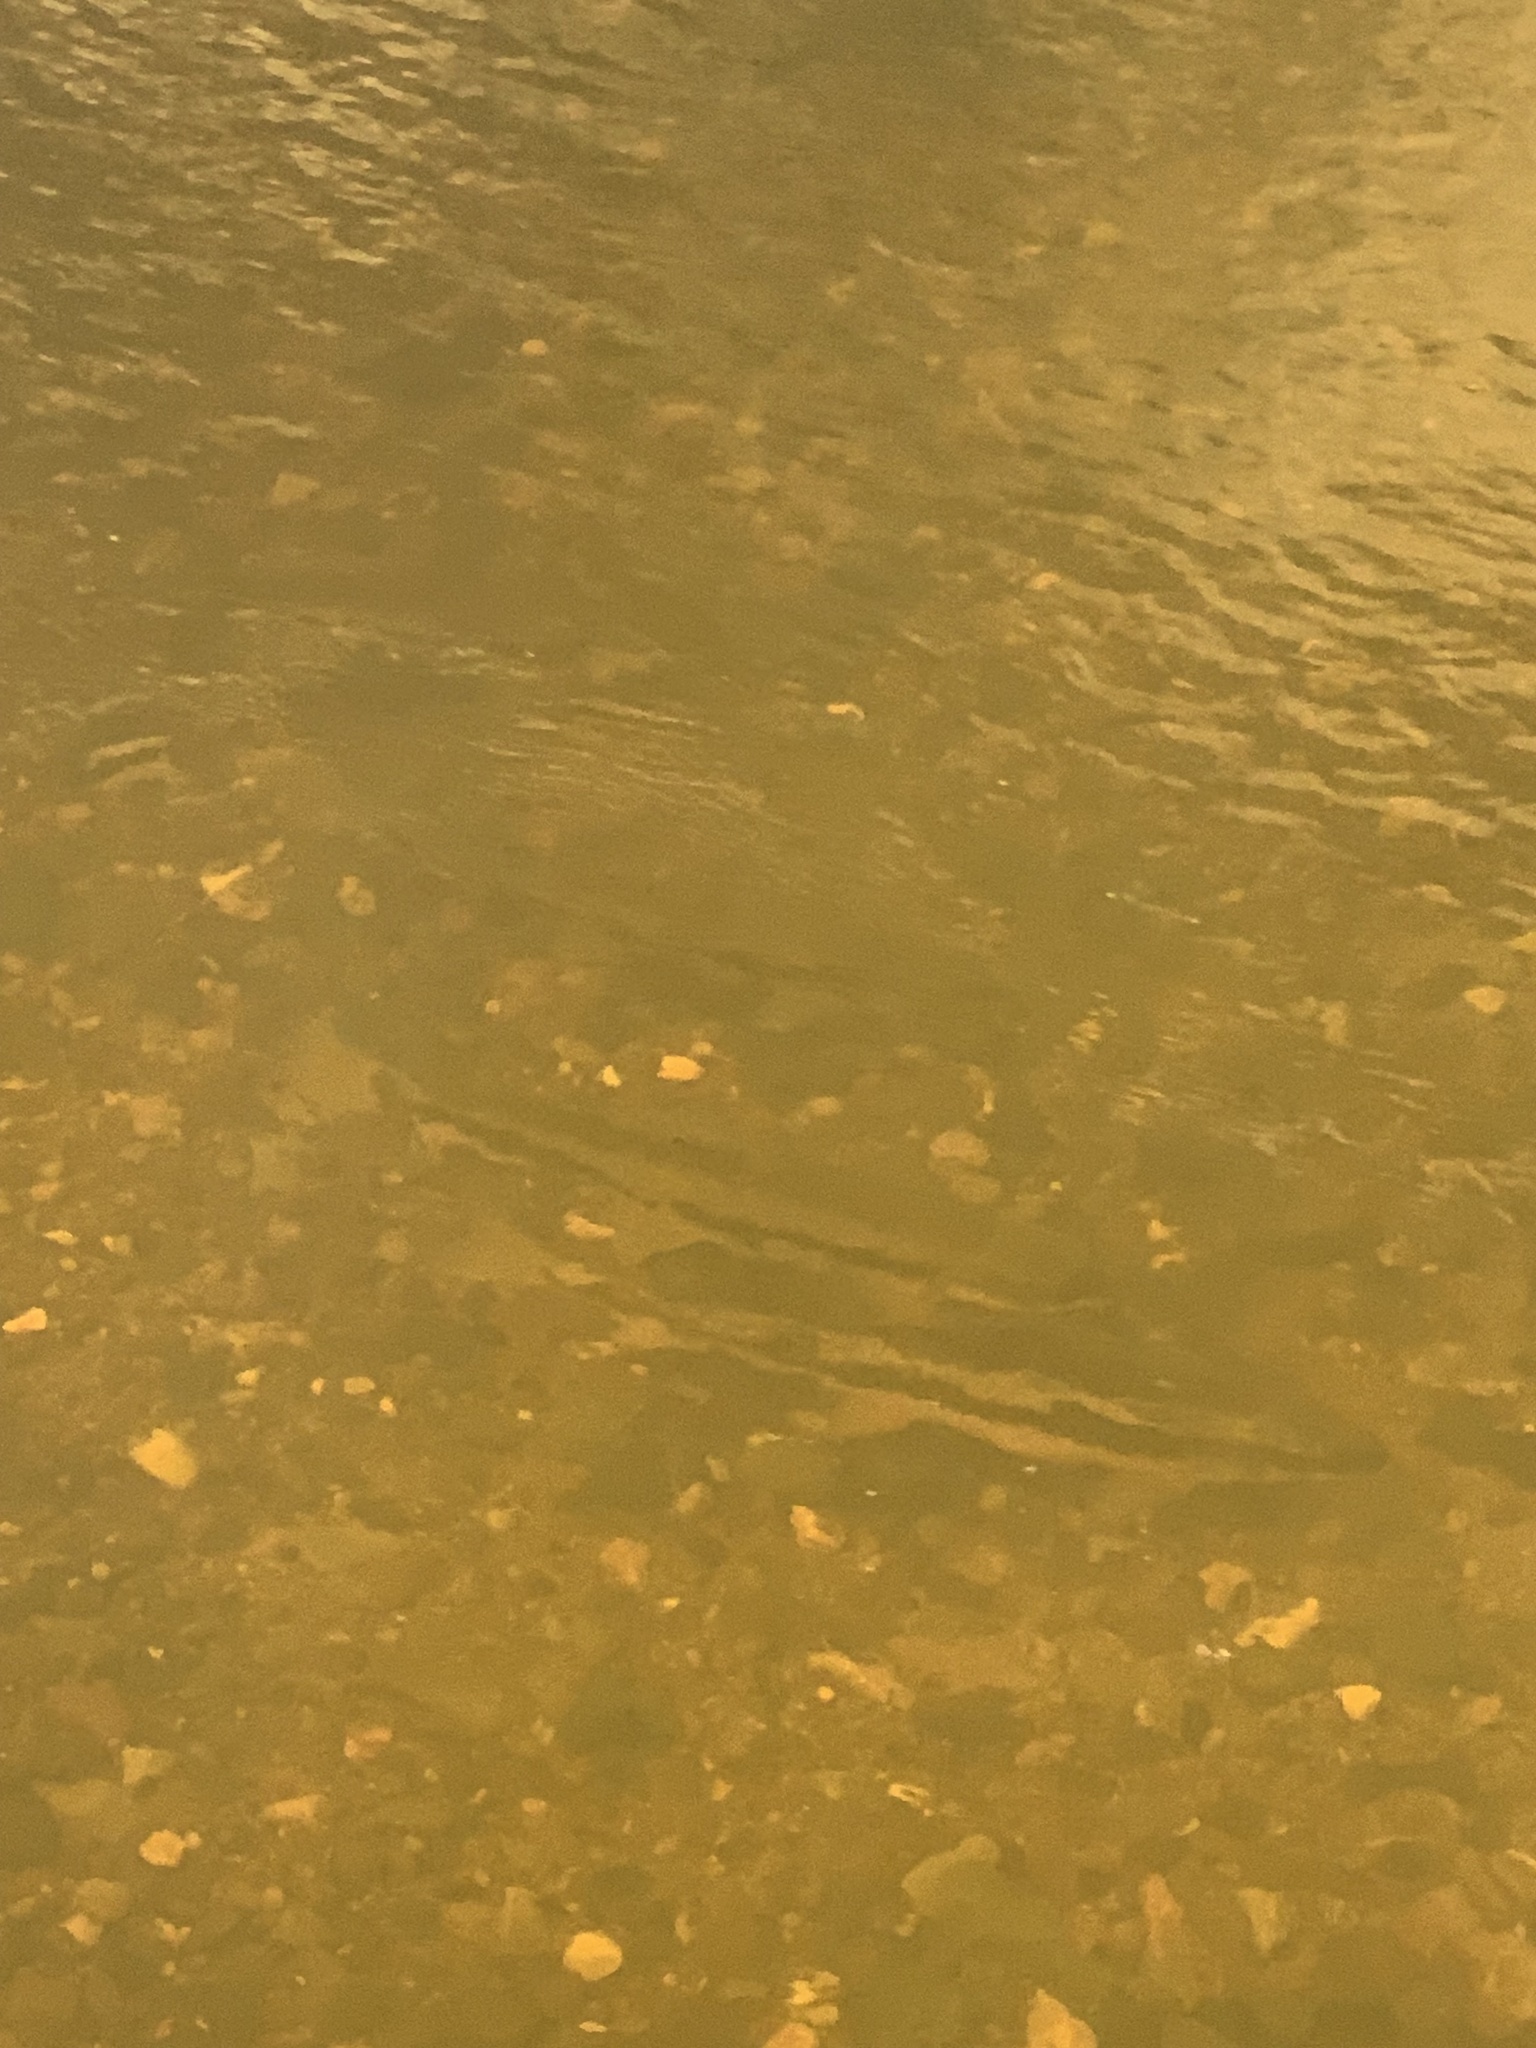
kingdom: Animalia
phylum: Chordata
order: Cypriniformes
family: Catostomidae
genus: Catostomus
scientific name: Catostomus occidentalis
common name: Goose lake sucker
